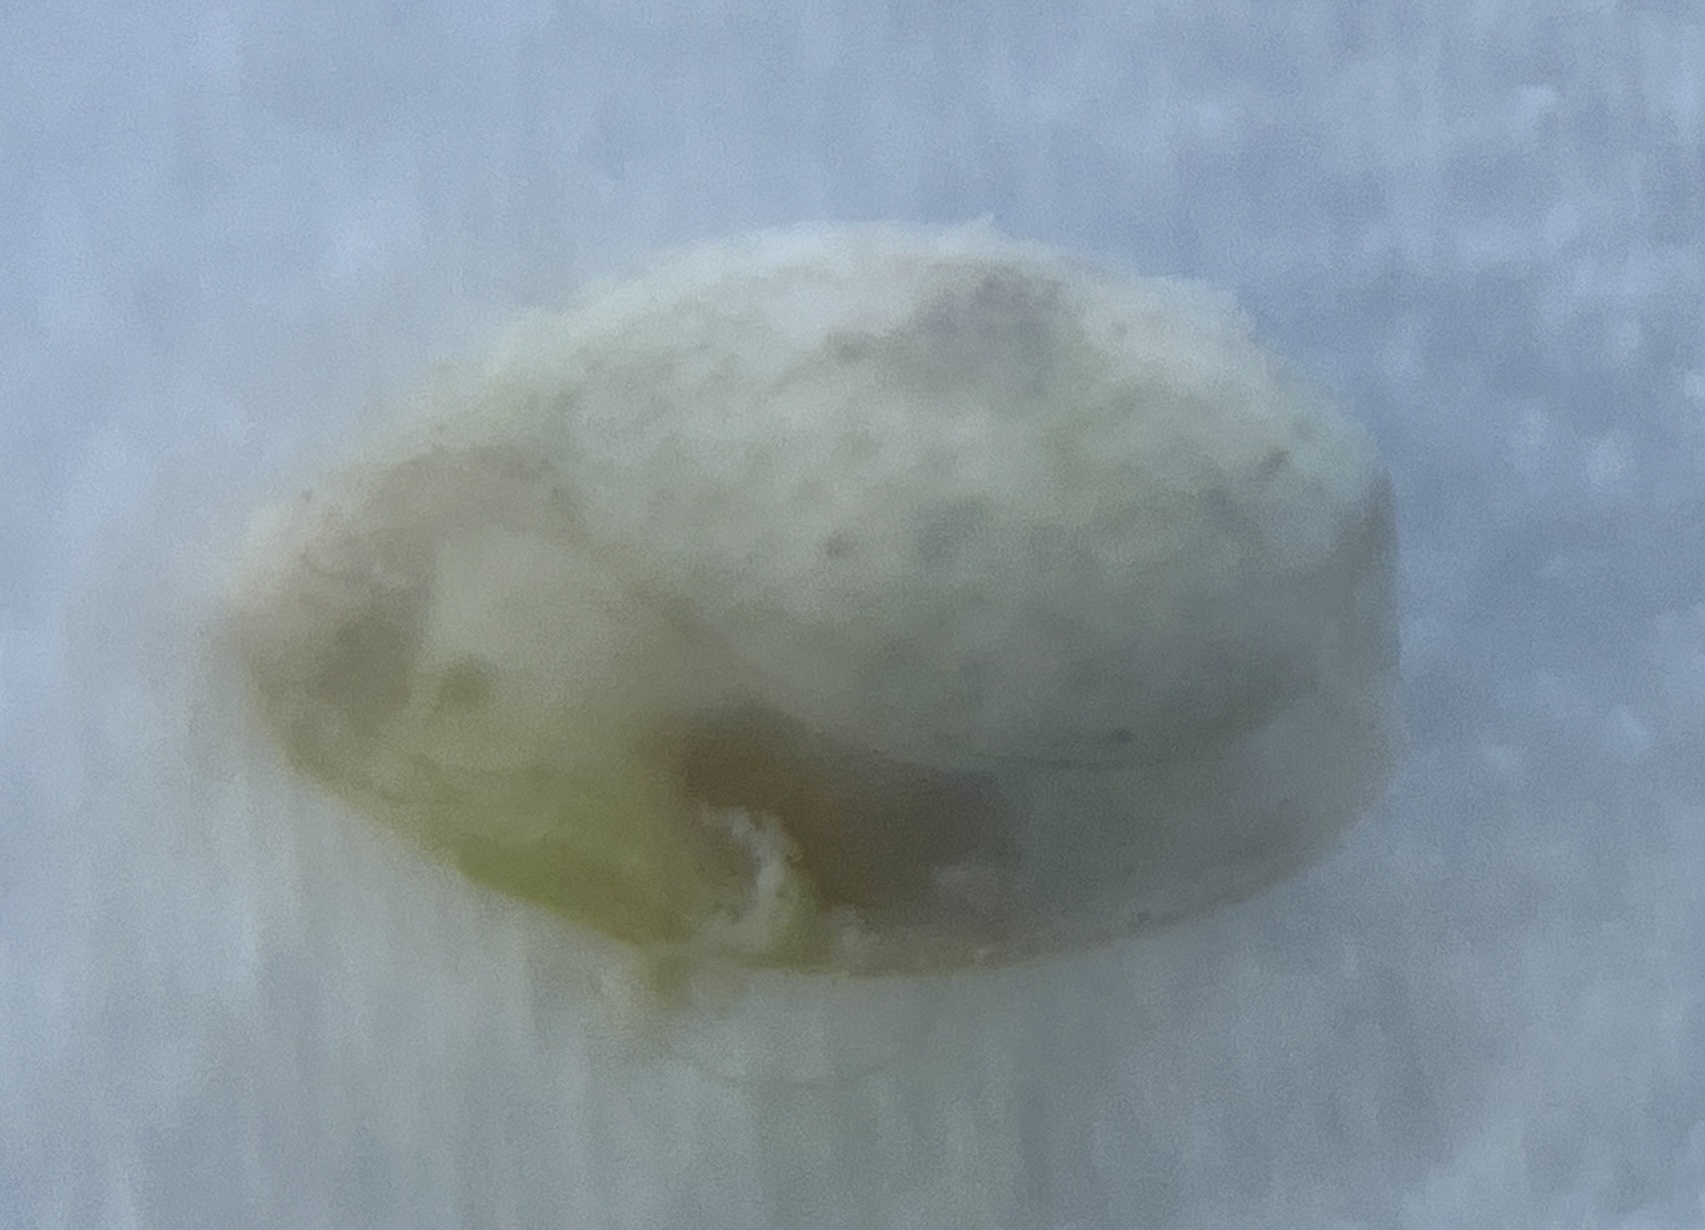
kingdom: Animalia
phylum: Mollusca
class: Gastropoda
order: Cephalaspidea
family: Bullidae
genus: Bulla
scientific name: Bulla occidentalis
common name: Common west-indian bubble
